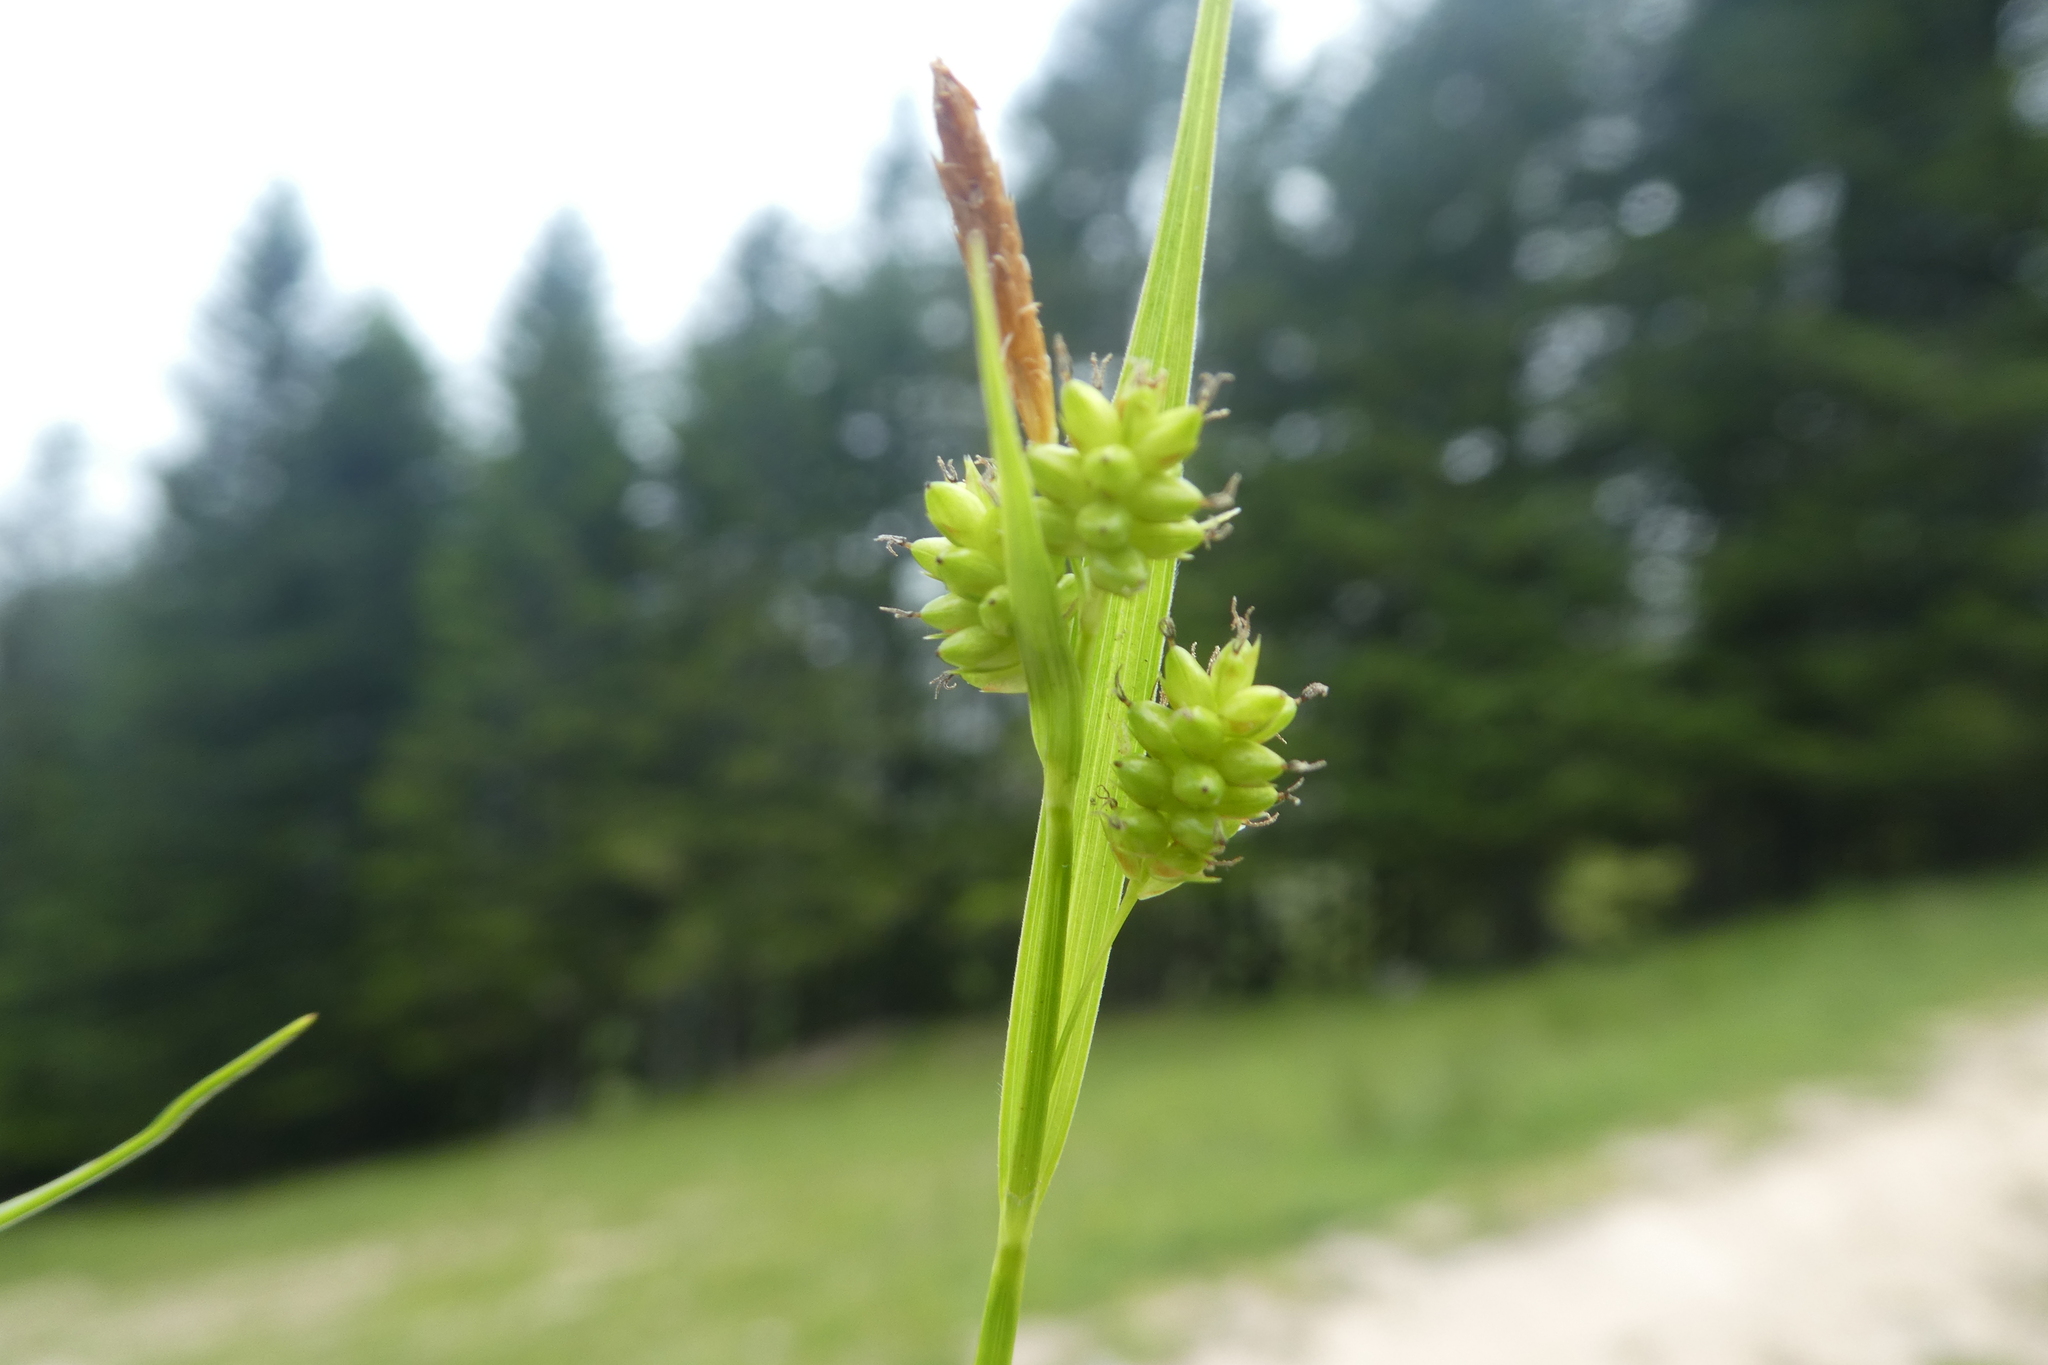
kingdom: Plantae
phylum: Tracheophyta
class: Liliopsida
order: Poales
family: Cyperaceae
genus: Carex
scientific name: Carex pallescens
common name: Pale sedge
